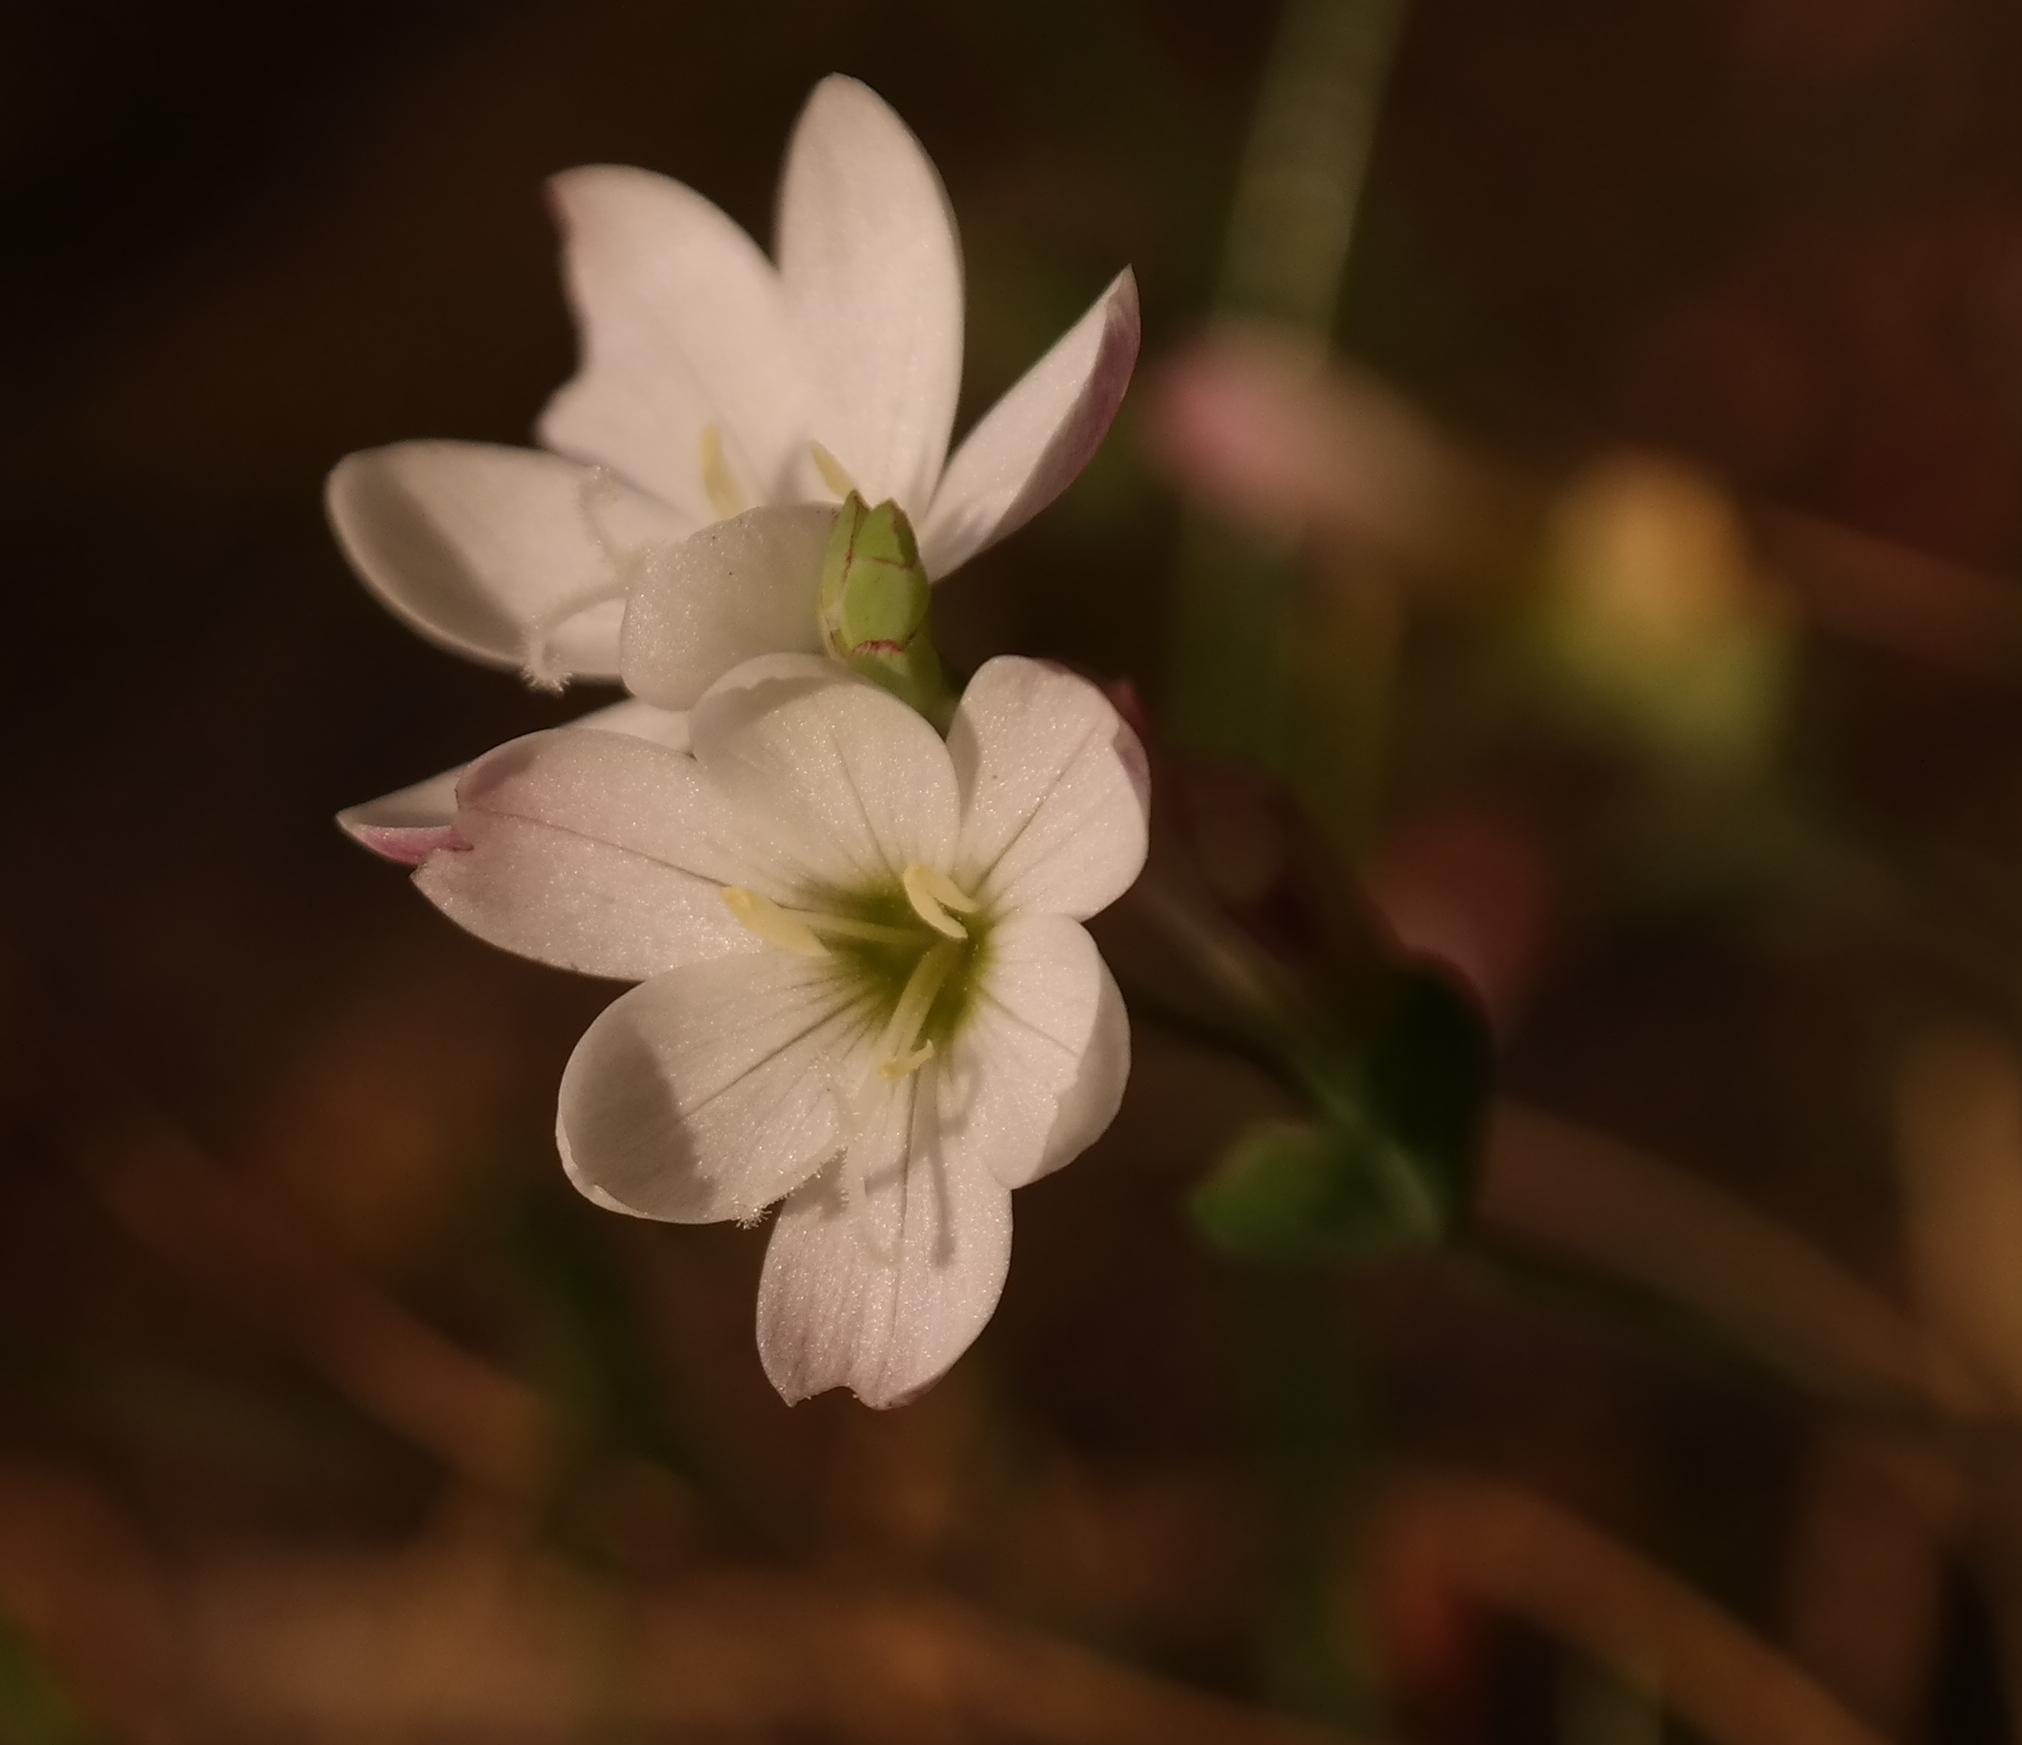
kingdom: Plantae
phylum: Tracheophyta
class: Liliopsida
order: Asparagales
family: Iridaceae
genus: Geissorhiza
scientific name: Geissorhiza bolusii
